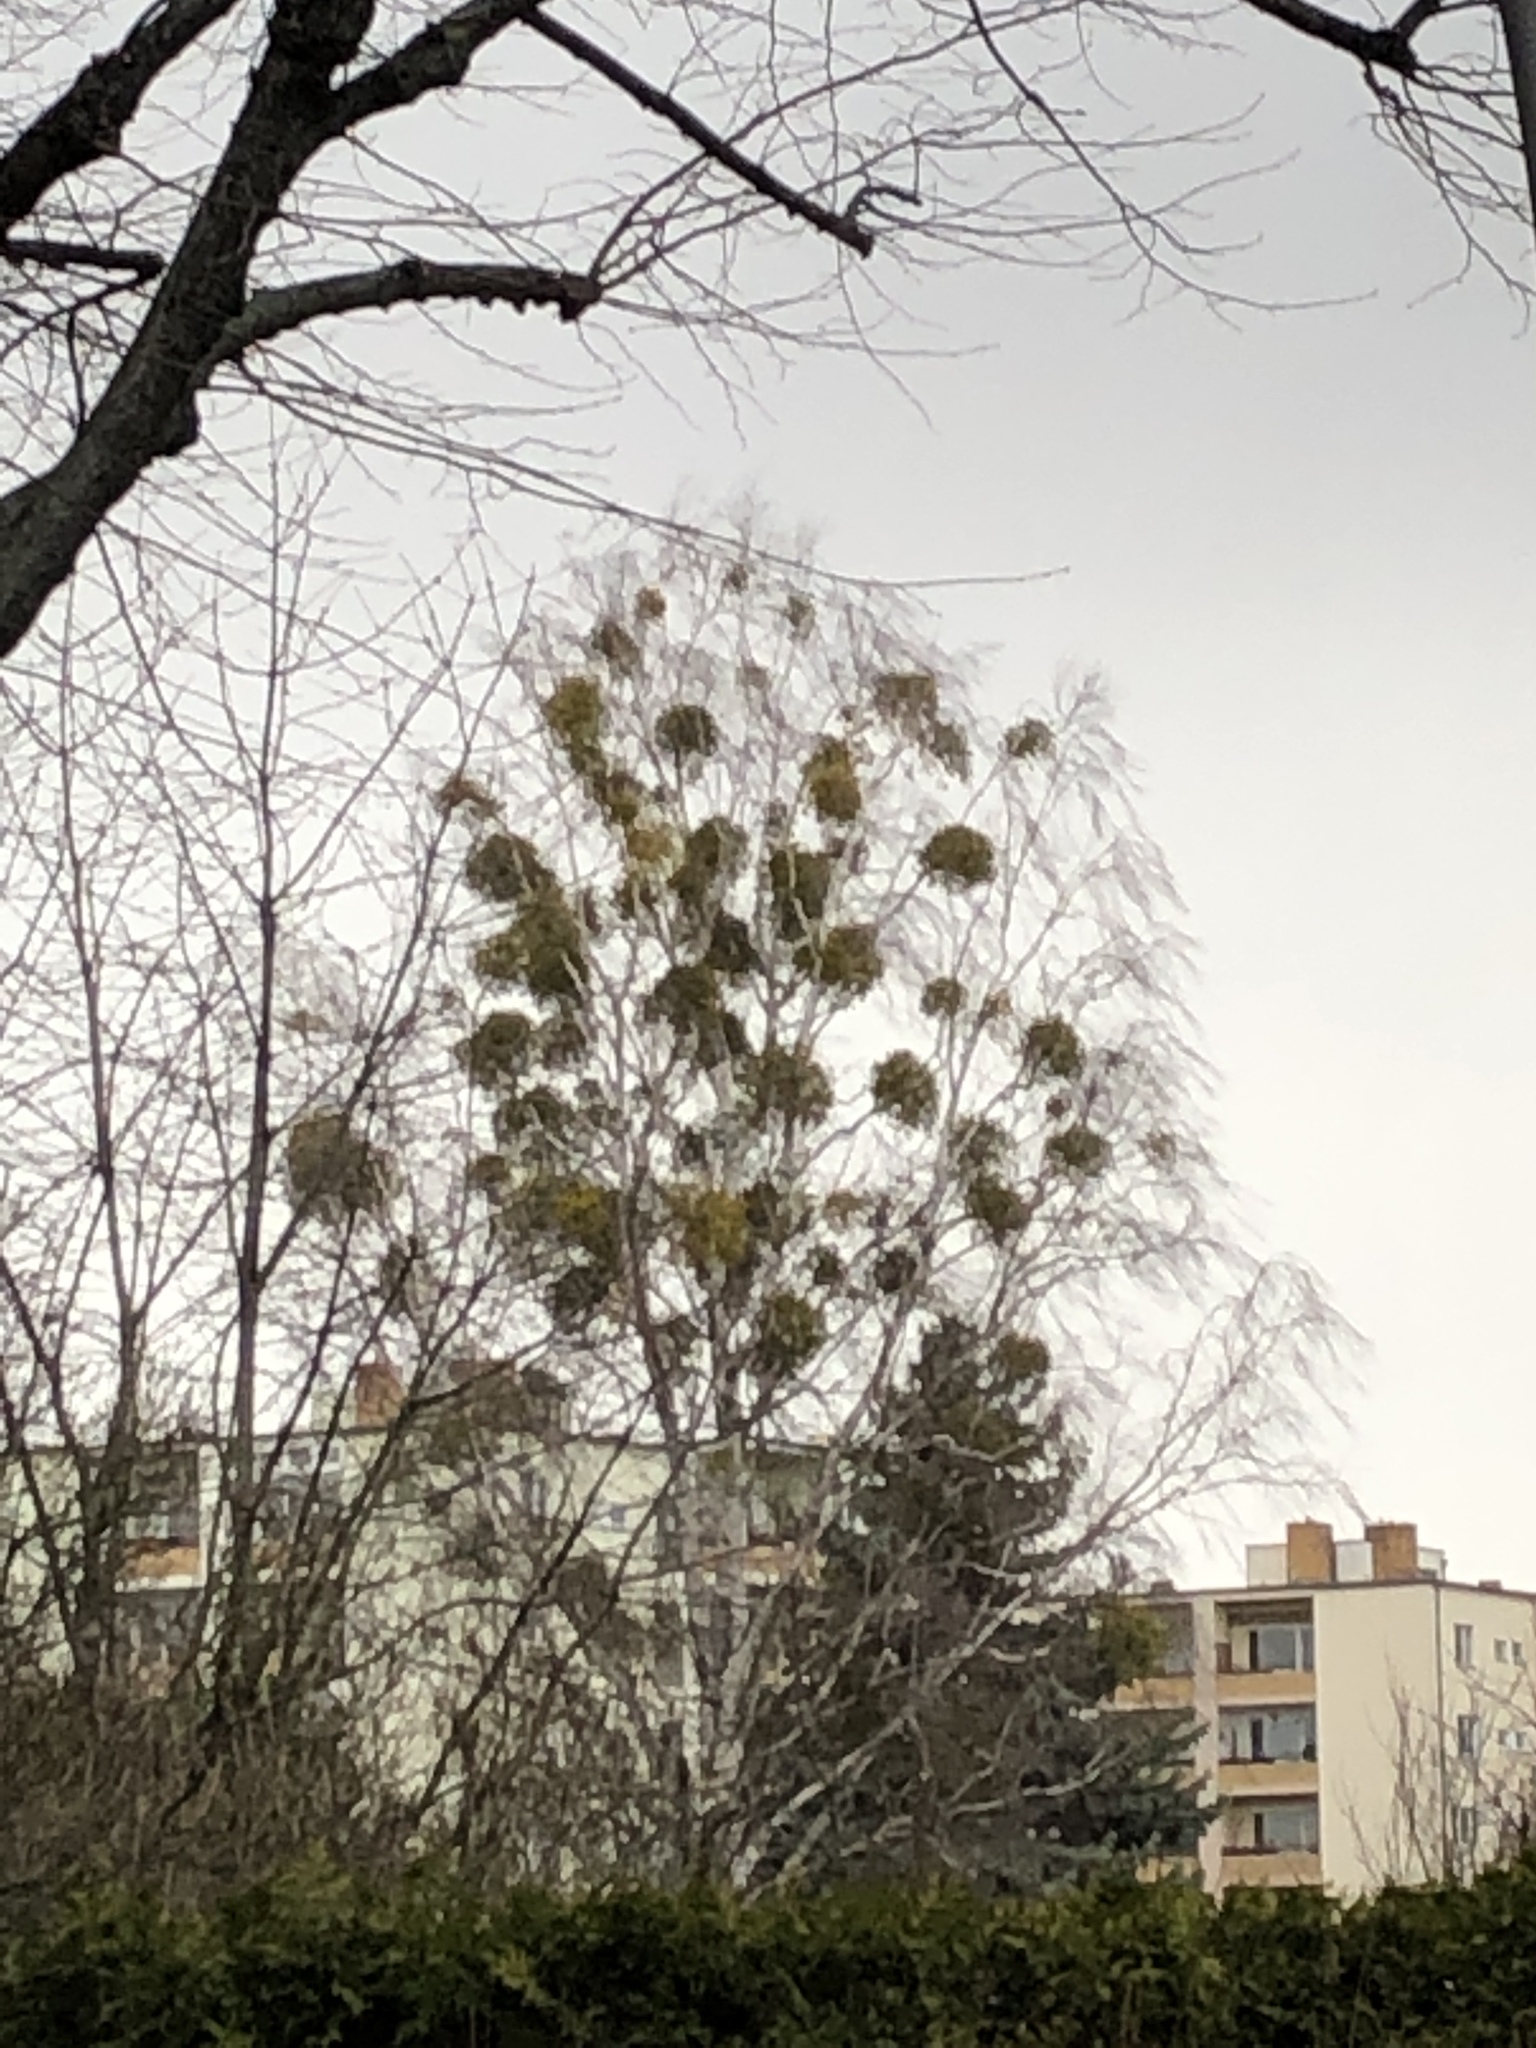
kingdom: Plantae
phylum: Tracheophyta
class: Magnoliopsida
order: Santalales
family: Viscaceae
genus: Viscum
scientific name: Viscum album
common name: Mistletoe
